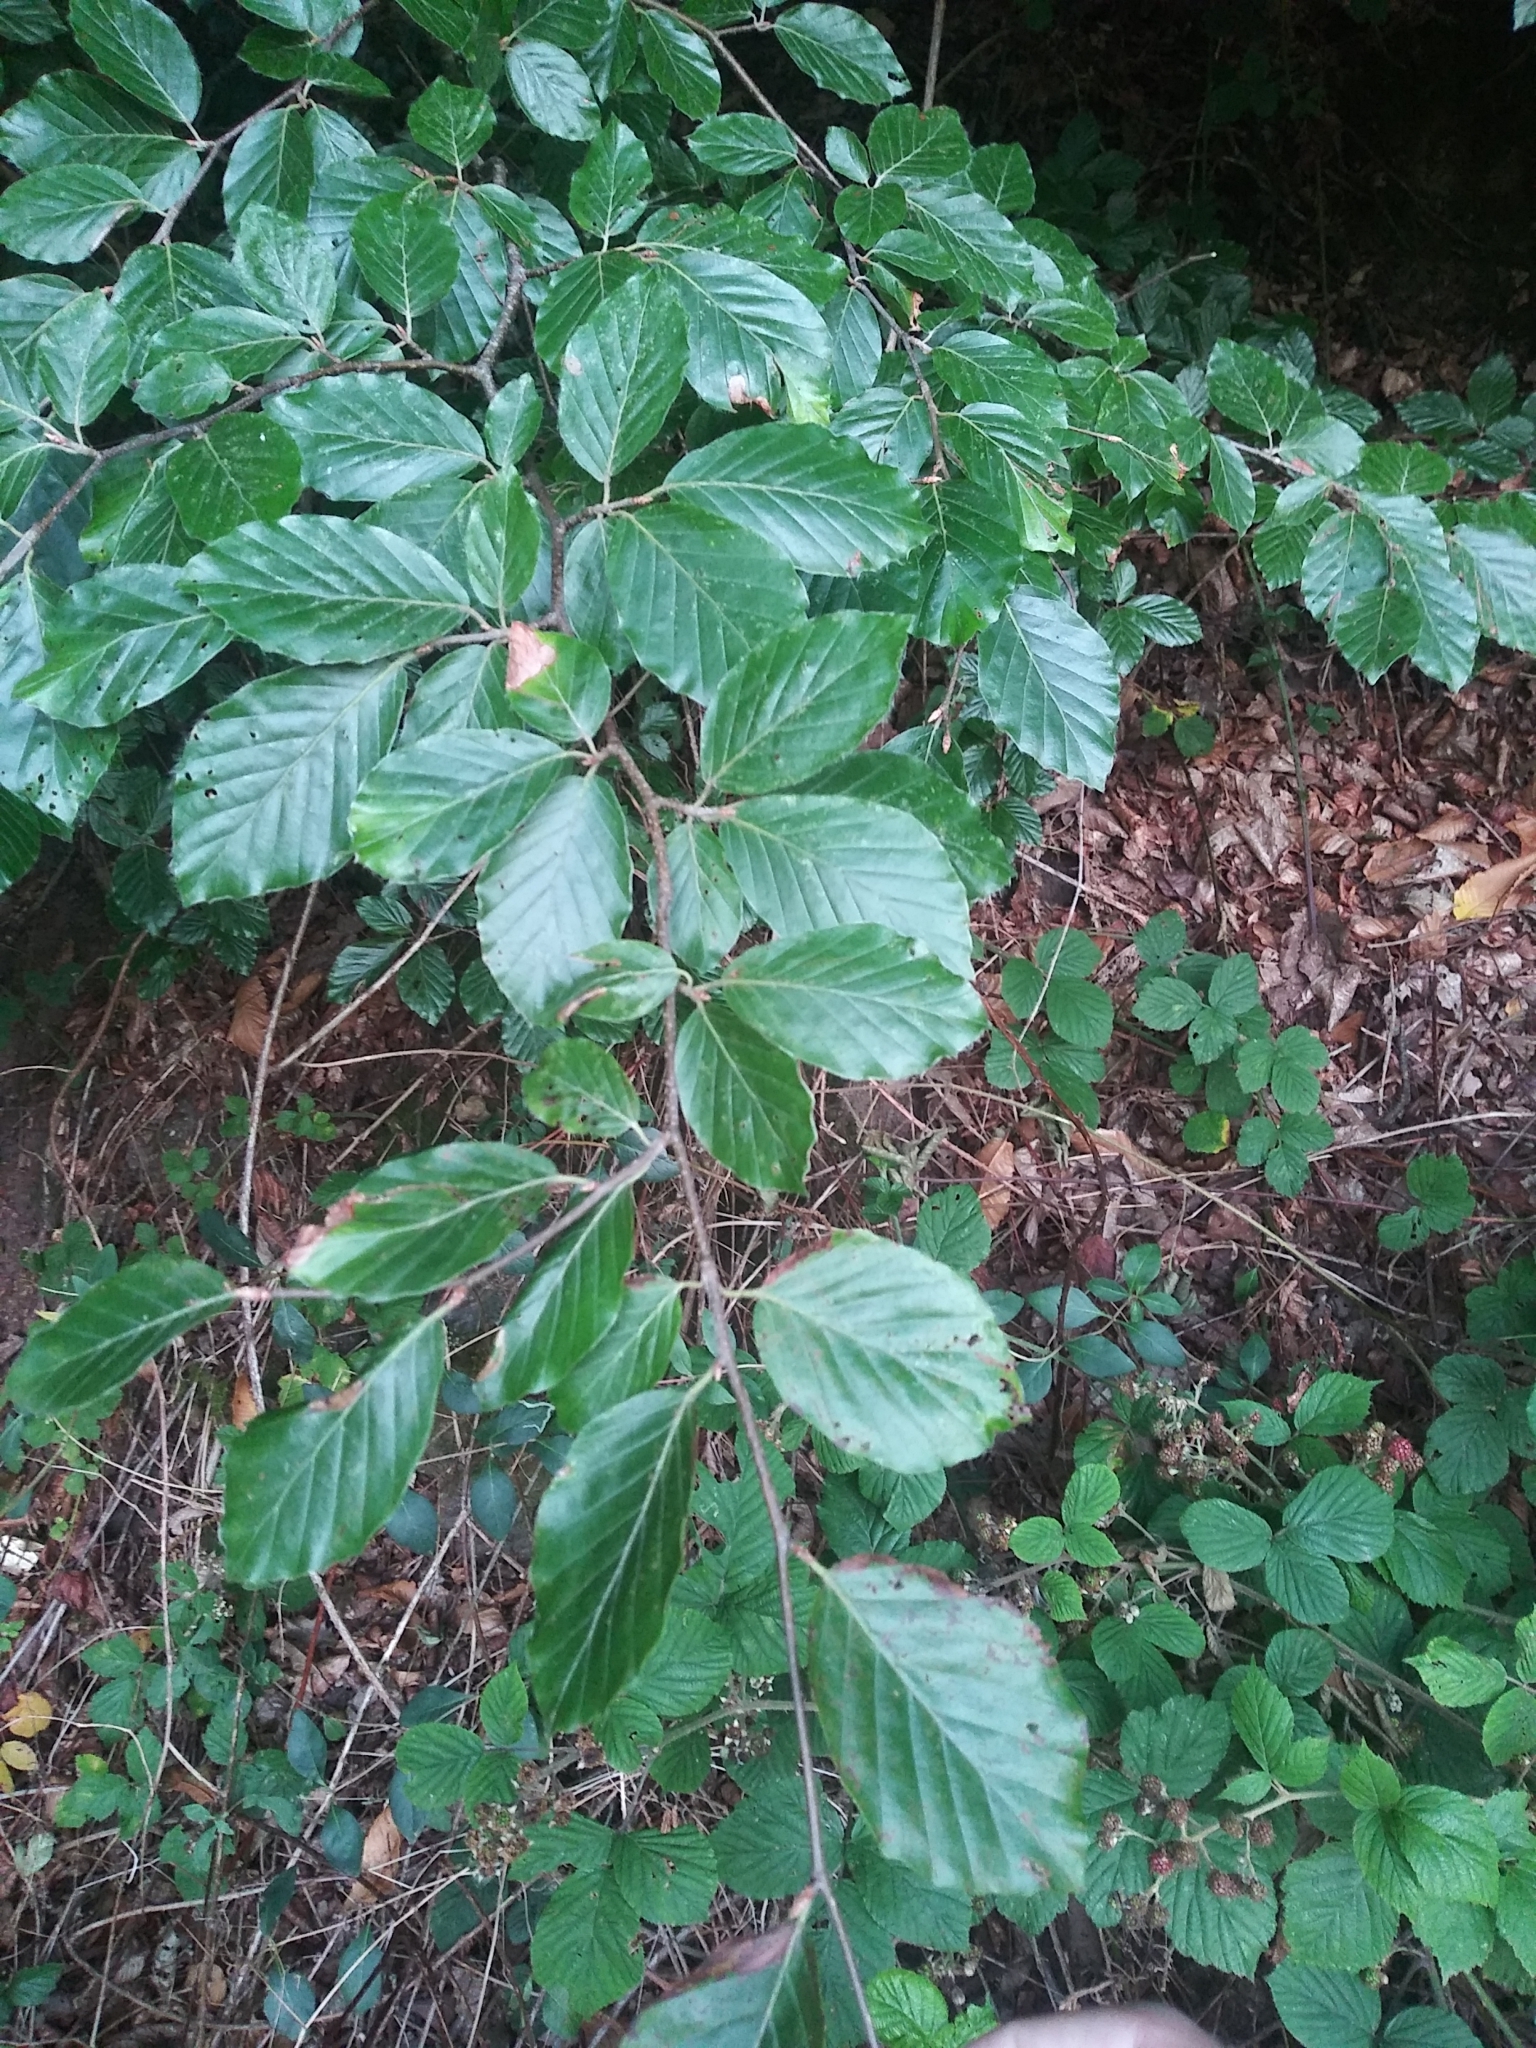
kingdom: Plantae
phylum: Tracheophyta
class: Magnoliopsida
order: Fagales
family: Fagaceae
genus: Fagus
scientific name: Fagus sylvatica
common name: Beech
